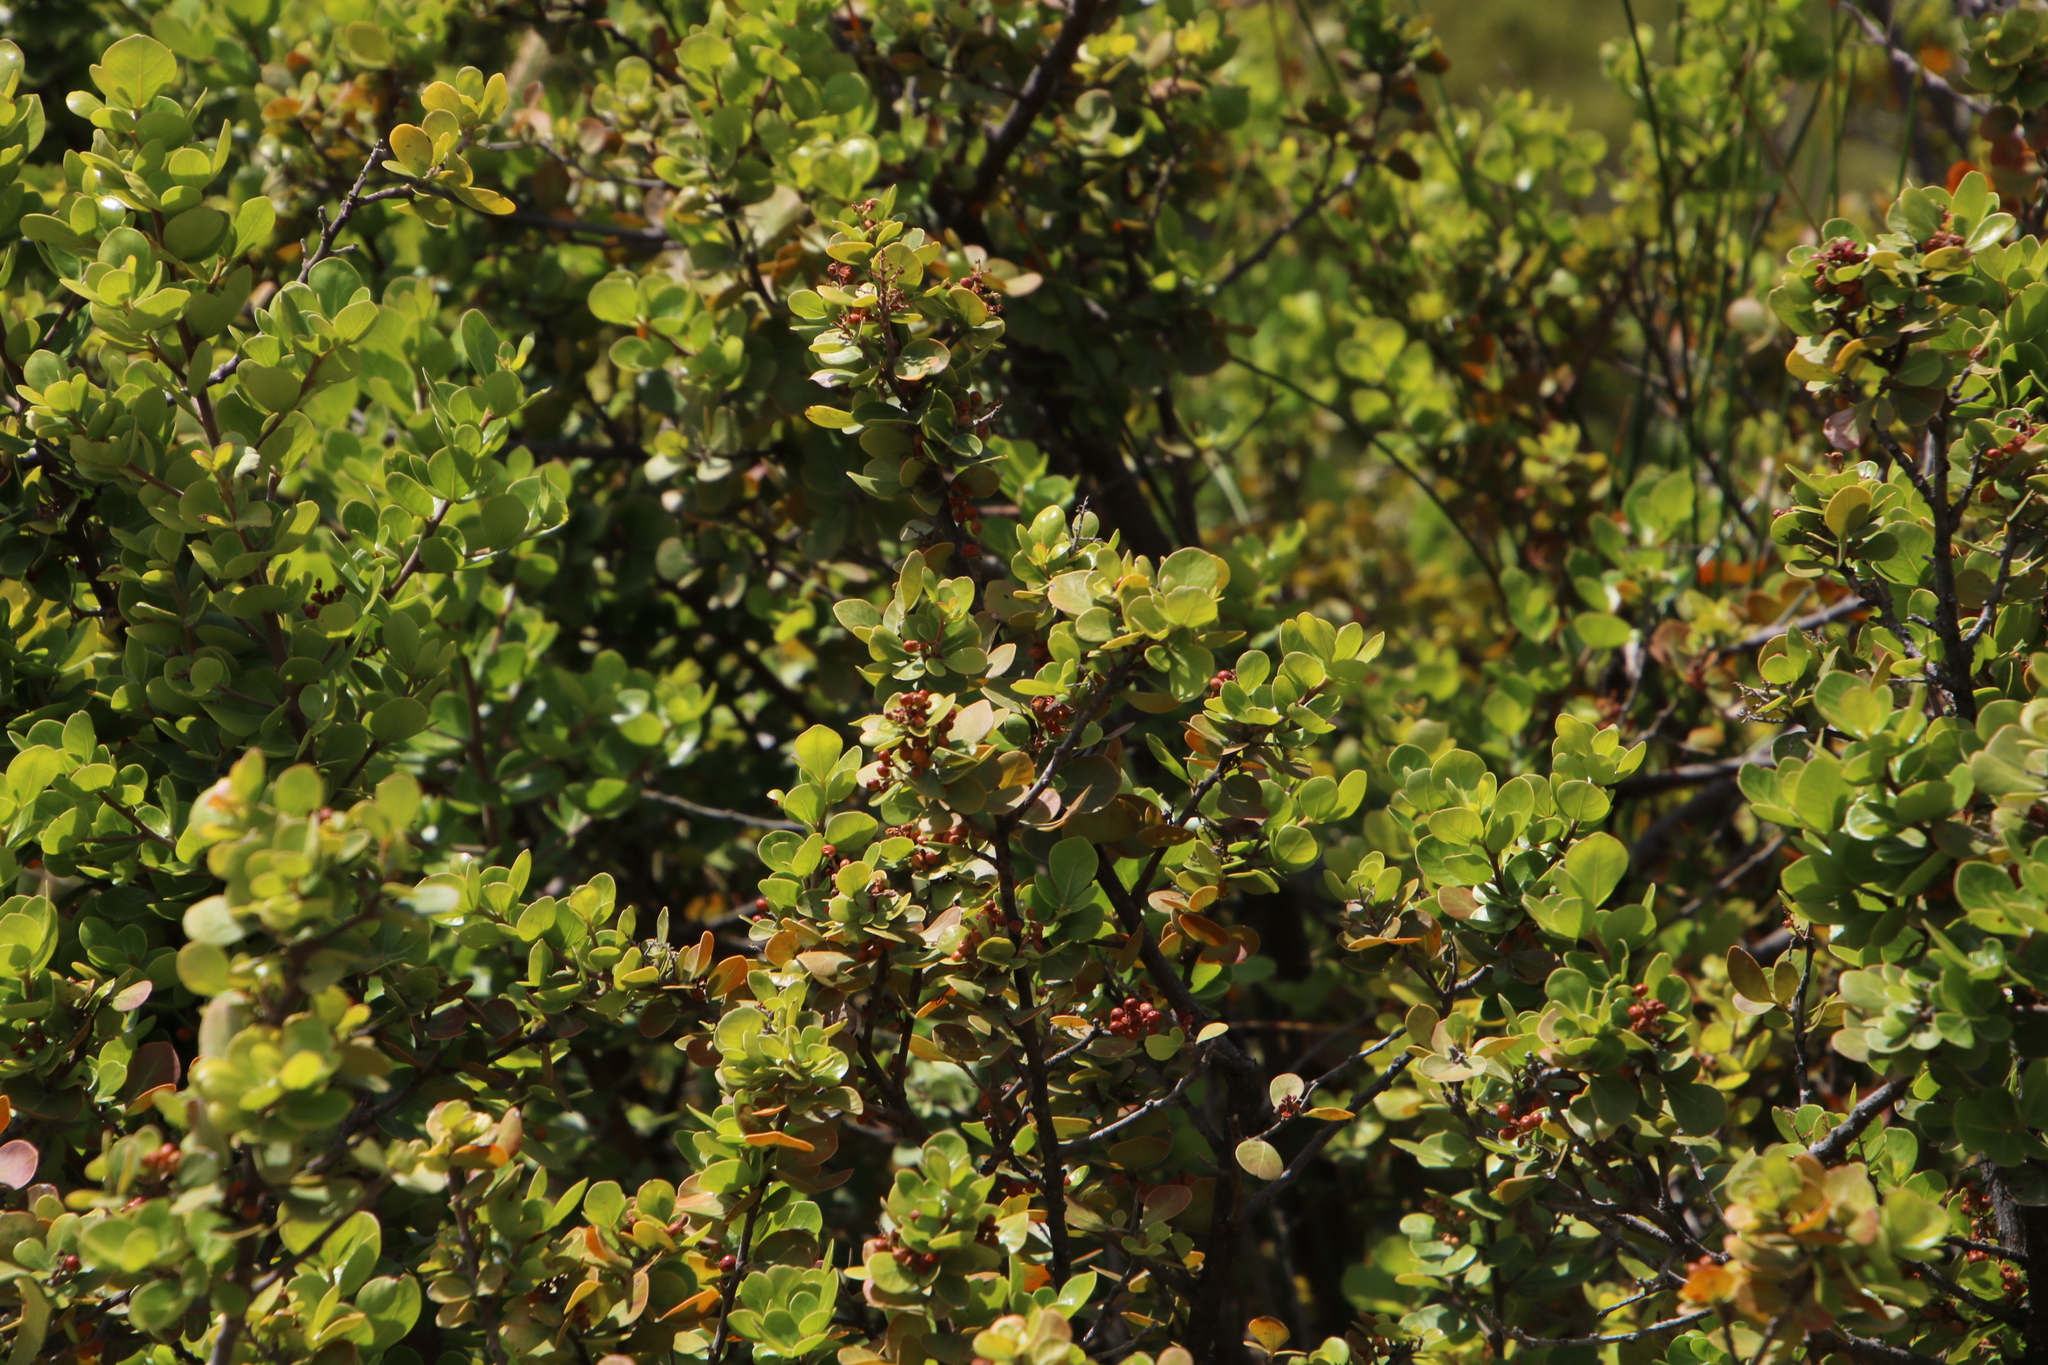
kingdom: Plantae
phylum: Tracheophyta
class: Magnoliopsida
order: Sapindales
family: Anacardiaceae
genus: Searsia
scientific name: Searsia lucida
